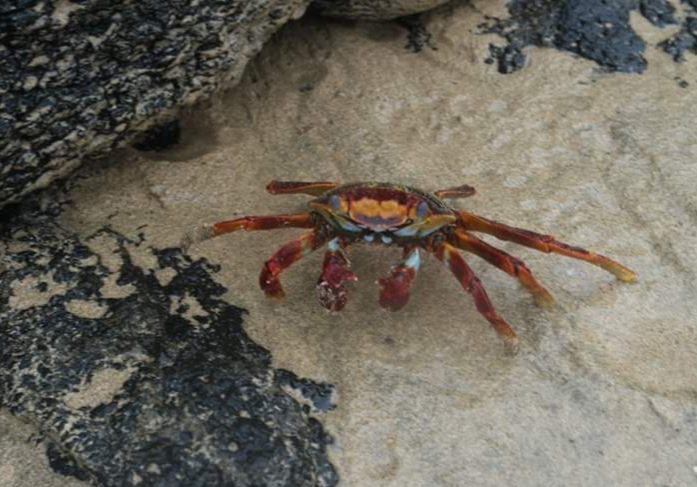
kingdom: Animalia
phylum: Arthropoda
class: Malacostraca
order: Decapoda
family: Grapsidae
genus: Grapsus
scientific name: Grapsus grapsus
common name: Sally lightfoot
